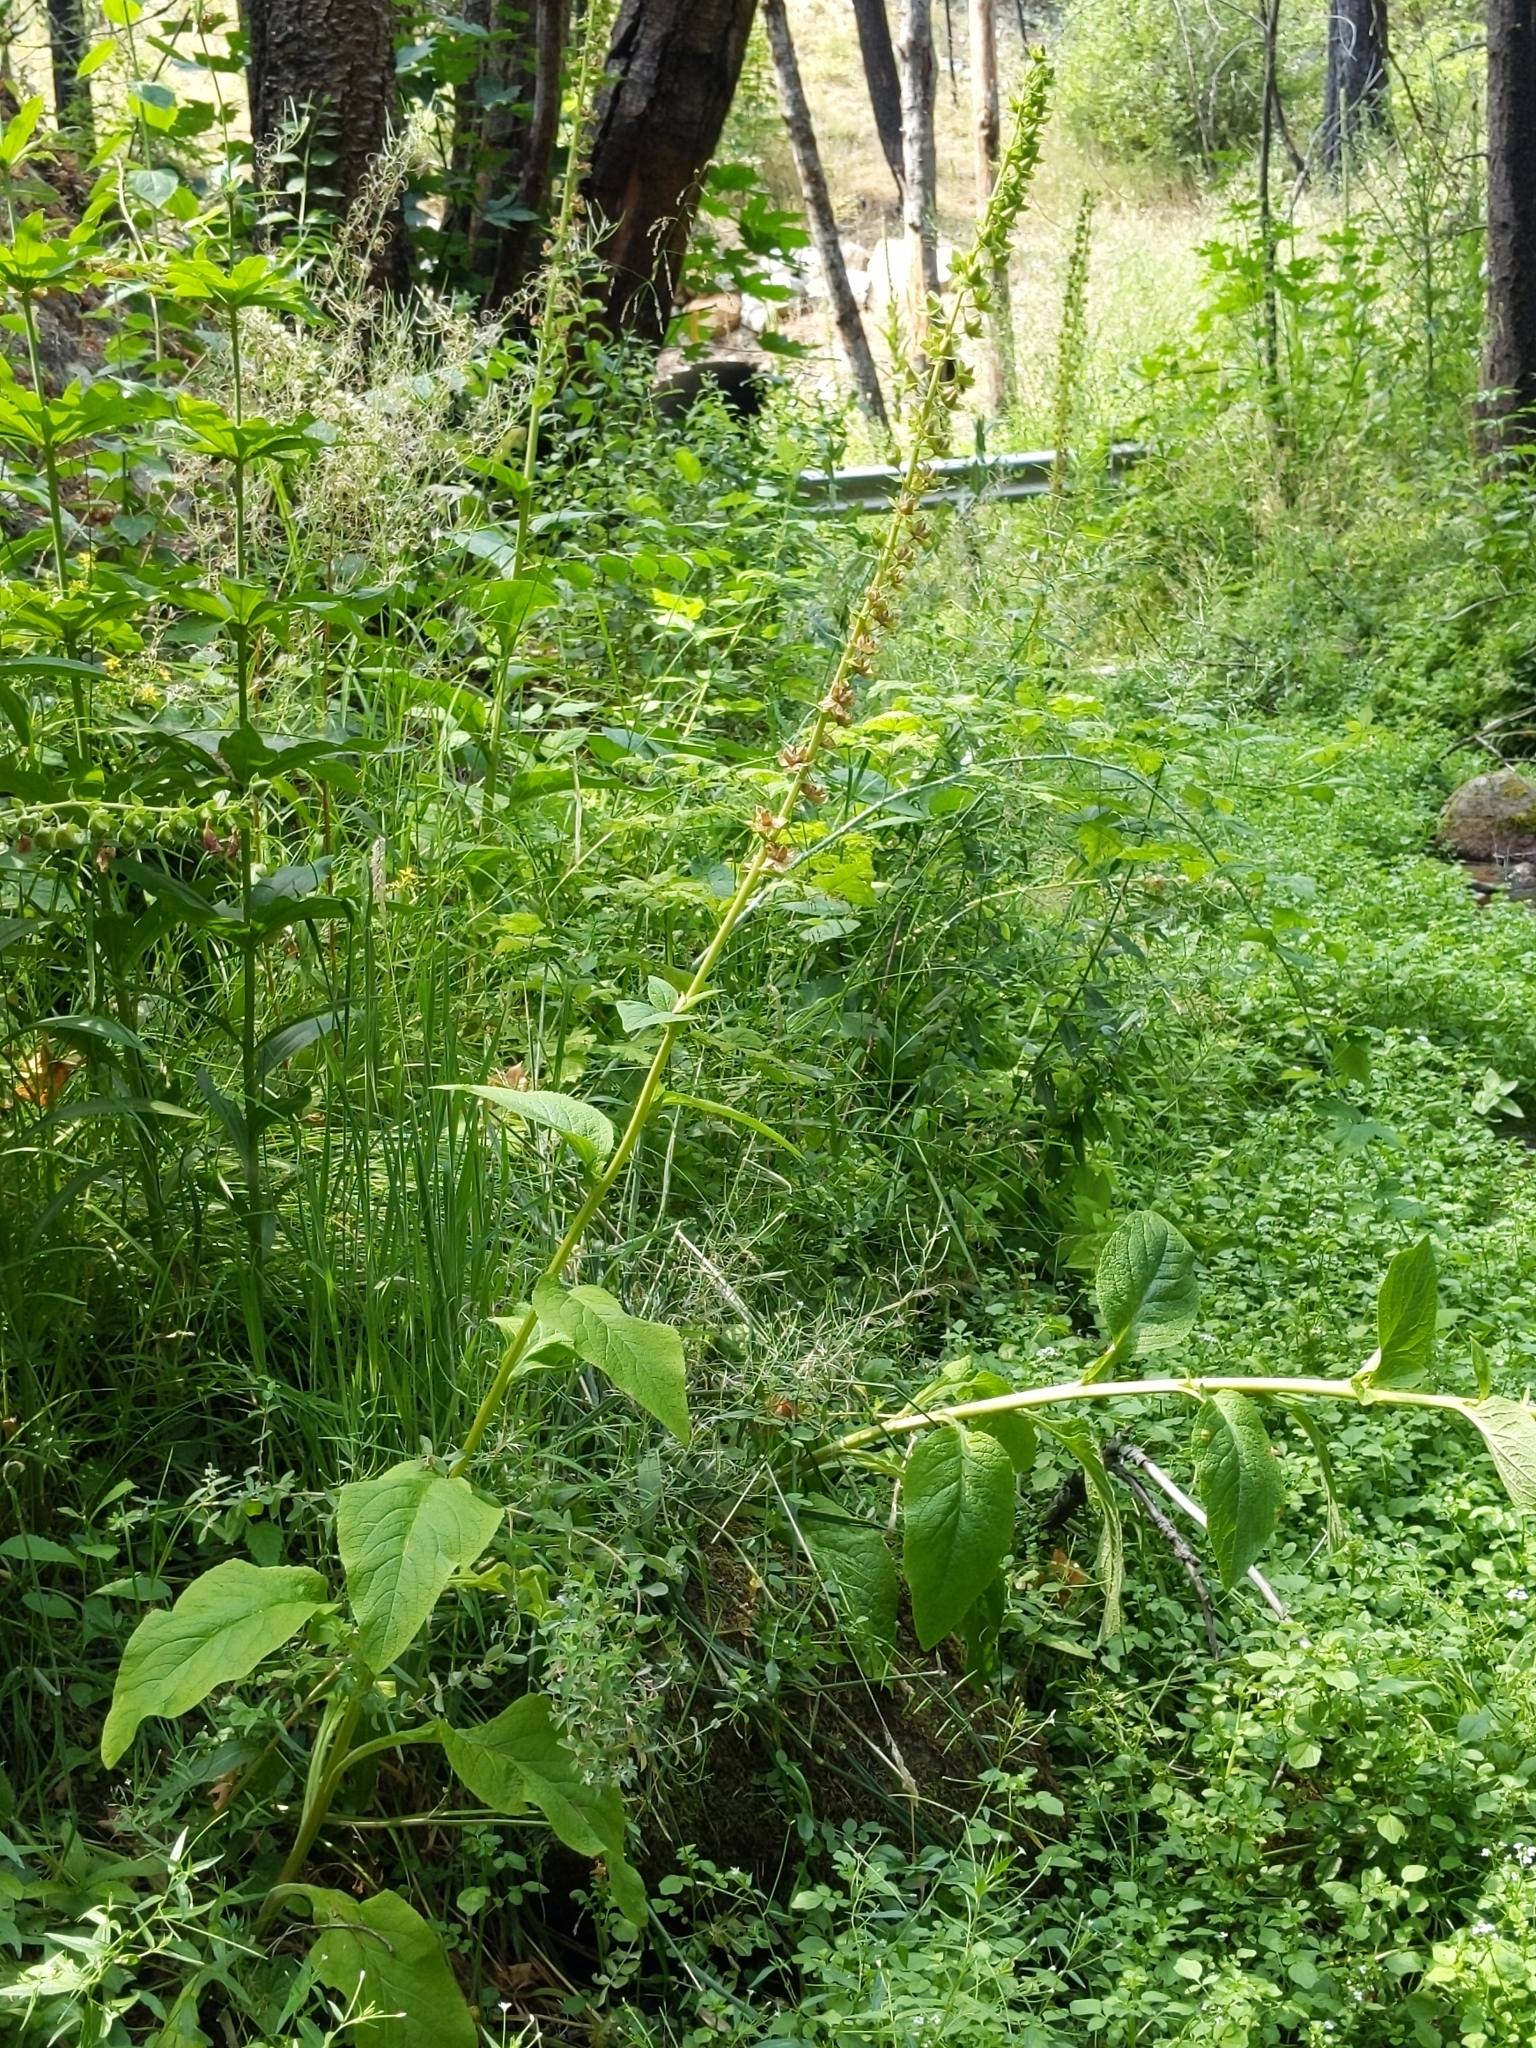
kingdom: Plantae
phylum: Tracheophyta
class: Magnoliopsida
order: Lamiales
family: Plantaginaceae
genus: Digitalis
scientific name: Digitalis purpurea
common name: Foxglove
